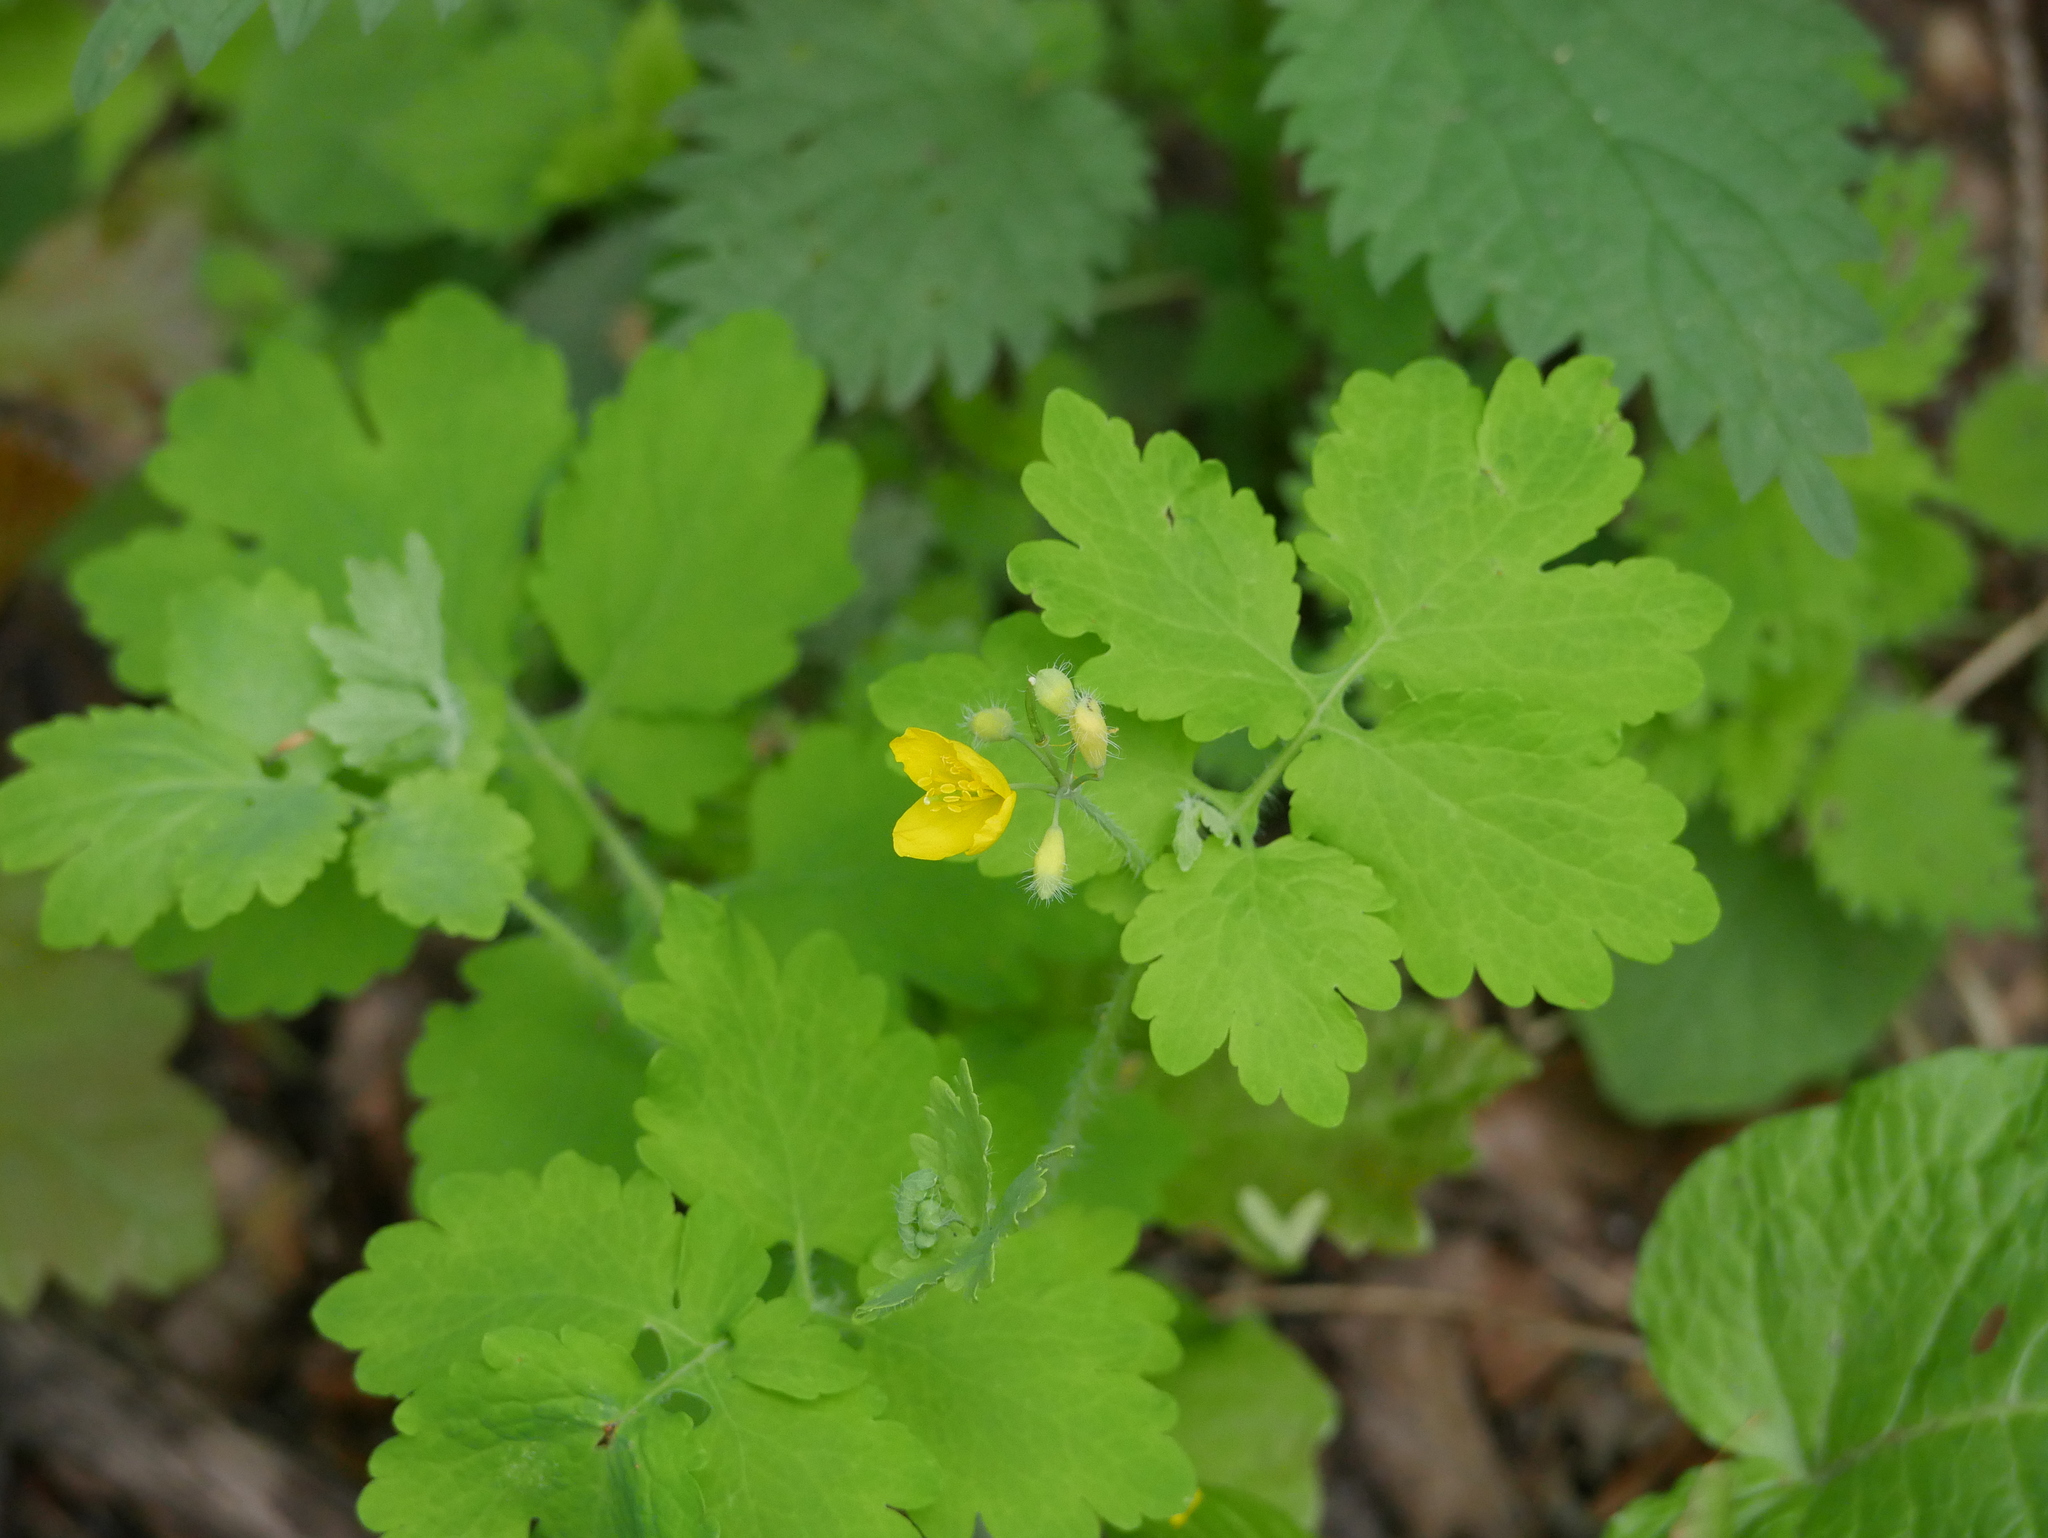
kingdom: Plantae
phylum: Tracheophyta
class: Magnoliopsida
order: Ranunculales
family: Papaveraceae
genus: Chelidonium
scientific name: Chelidonium majus
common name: Greater celandine
